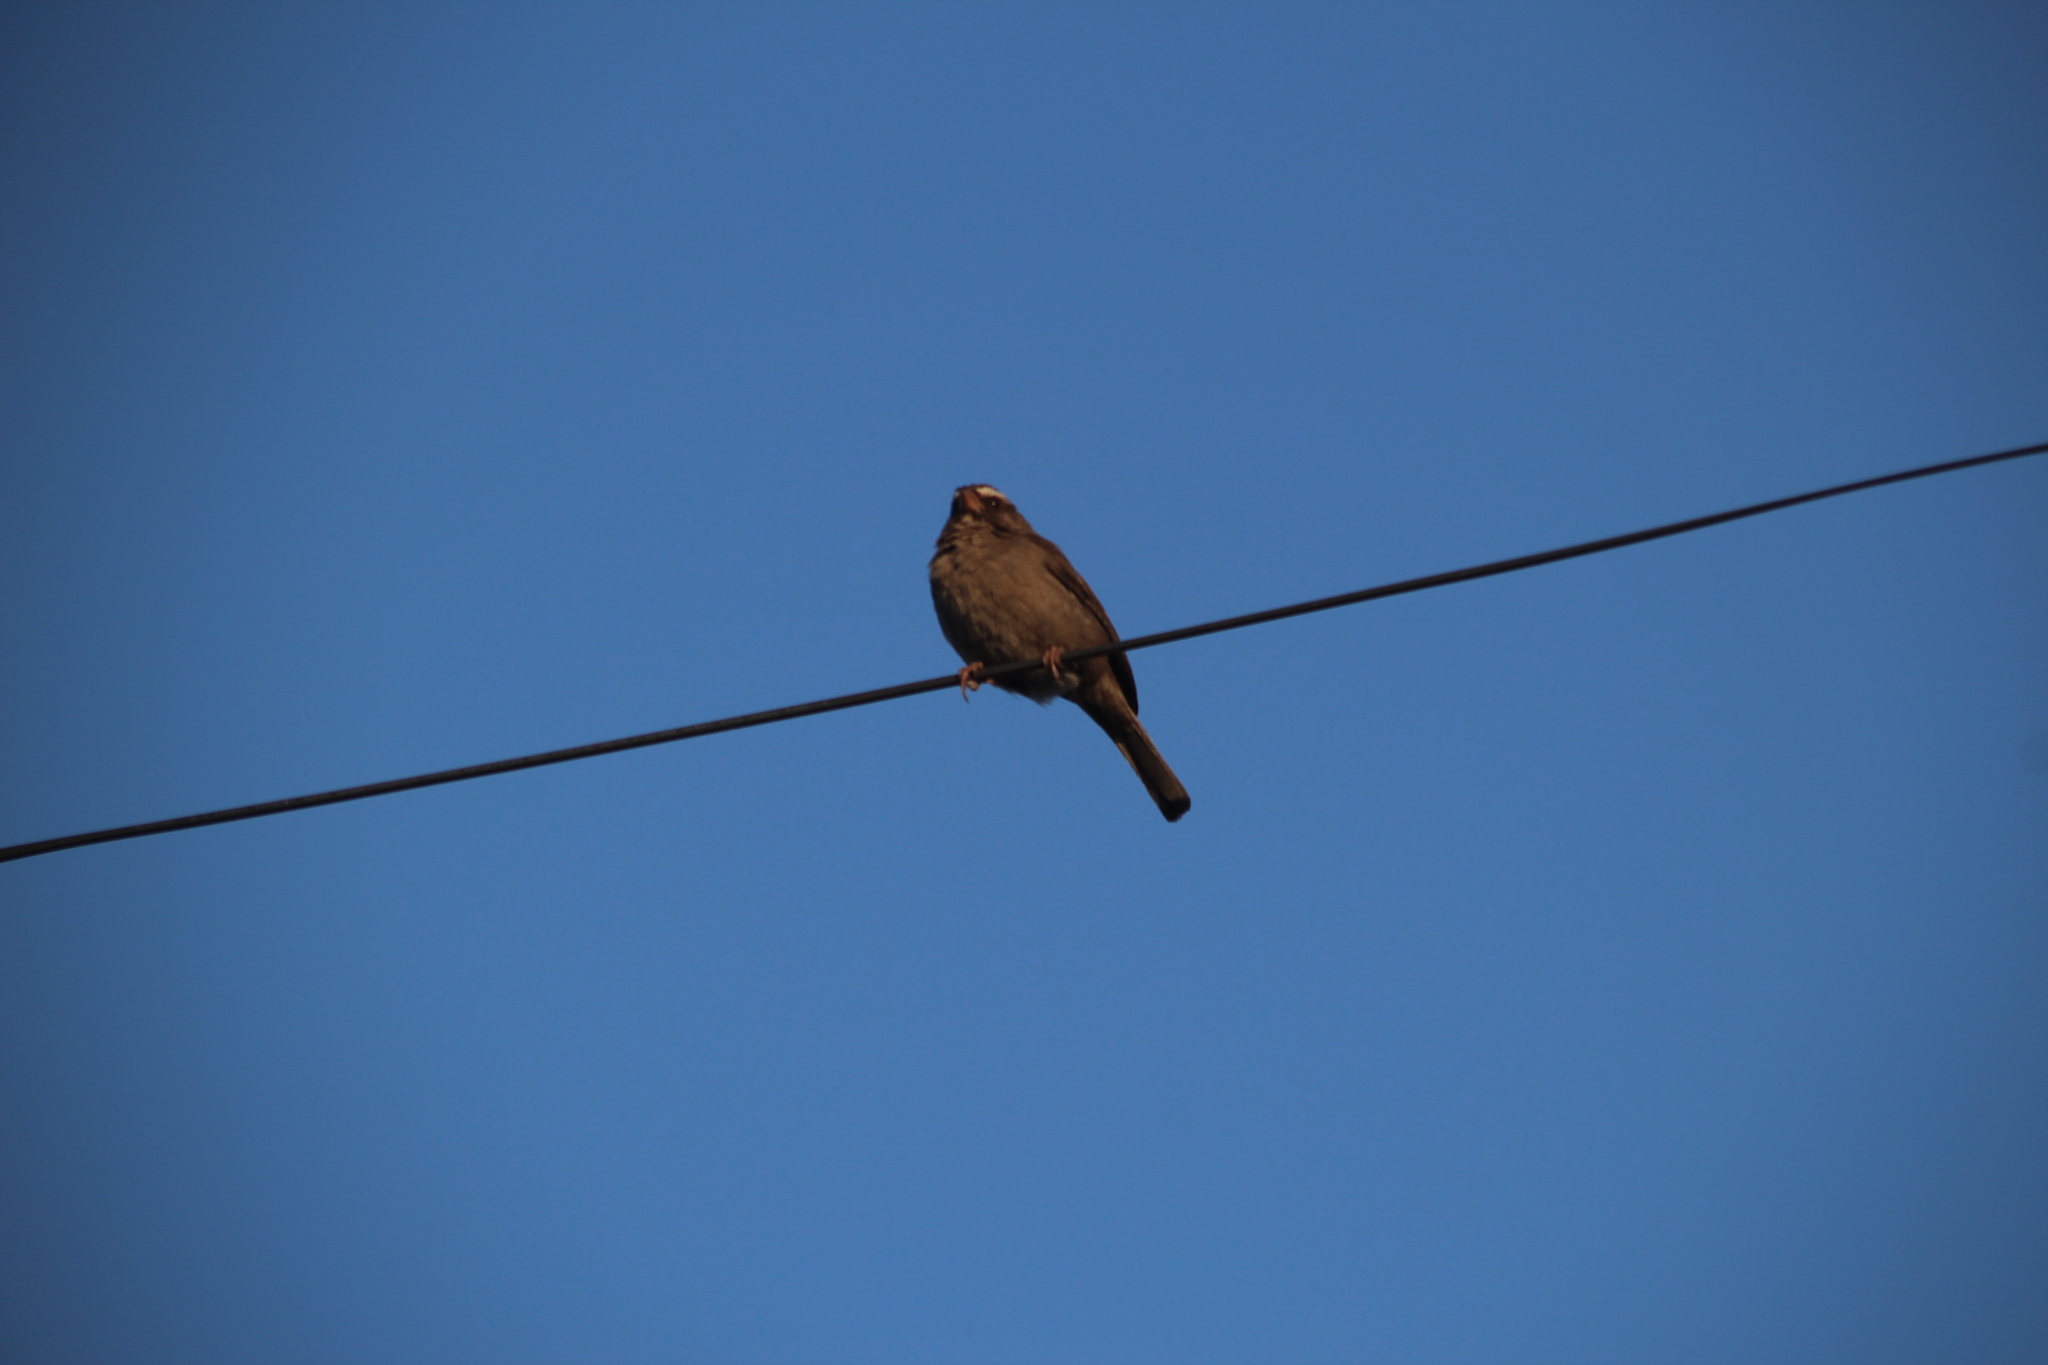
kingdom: Animalia
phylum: Chordata
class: Aves
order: Passeriformes
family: Fringillidae
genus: Crithagra
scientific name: Crithagra tristriata
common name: Brown-rumped seedeater
